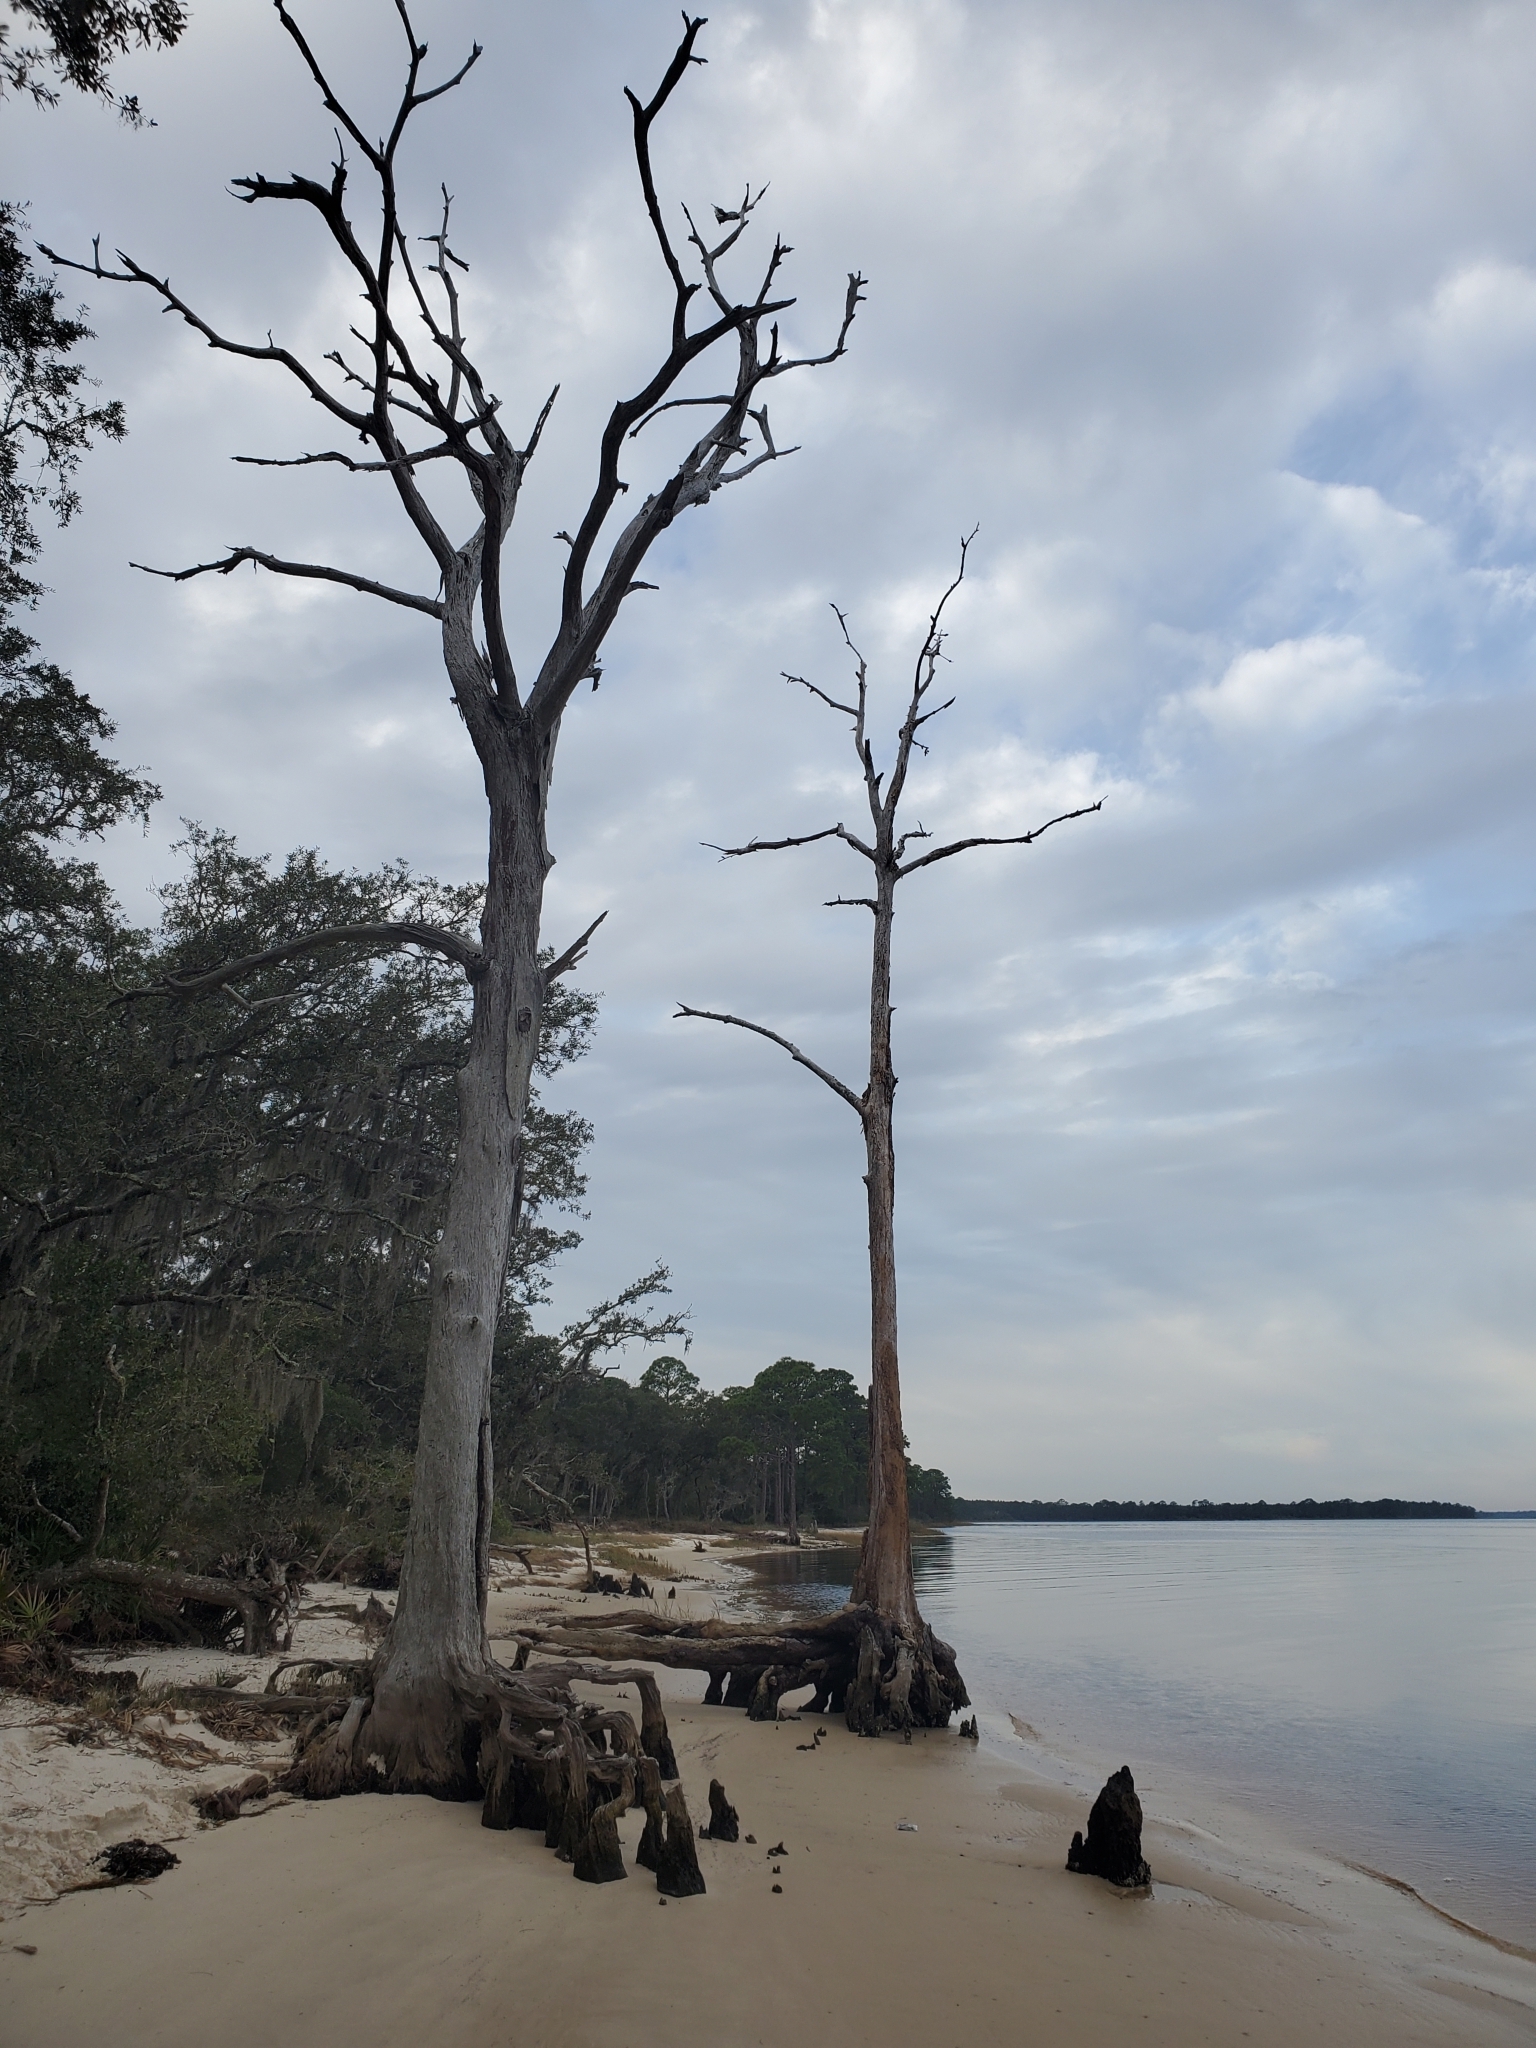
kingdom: Plantae
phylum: Tracheophyta
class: Pinopsida
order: Pinales
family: Cupressaceae
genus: Taxodium
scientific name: Taxodium distichum
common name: Bald cypress
